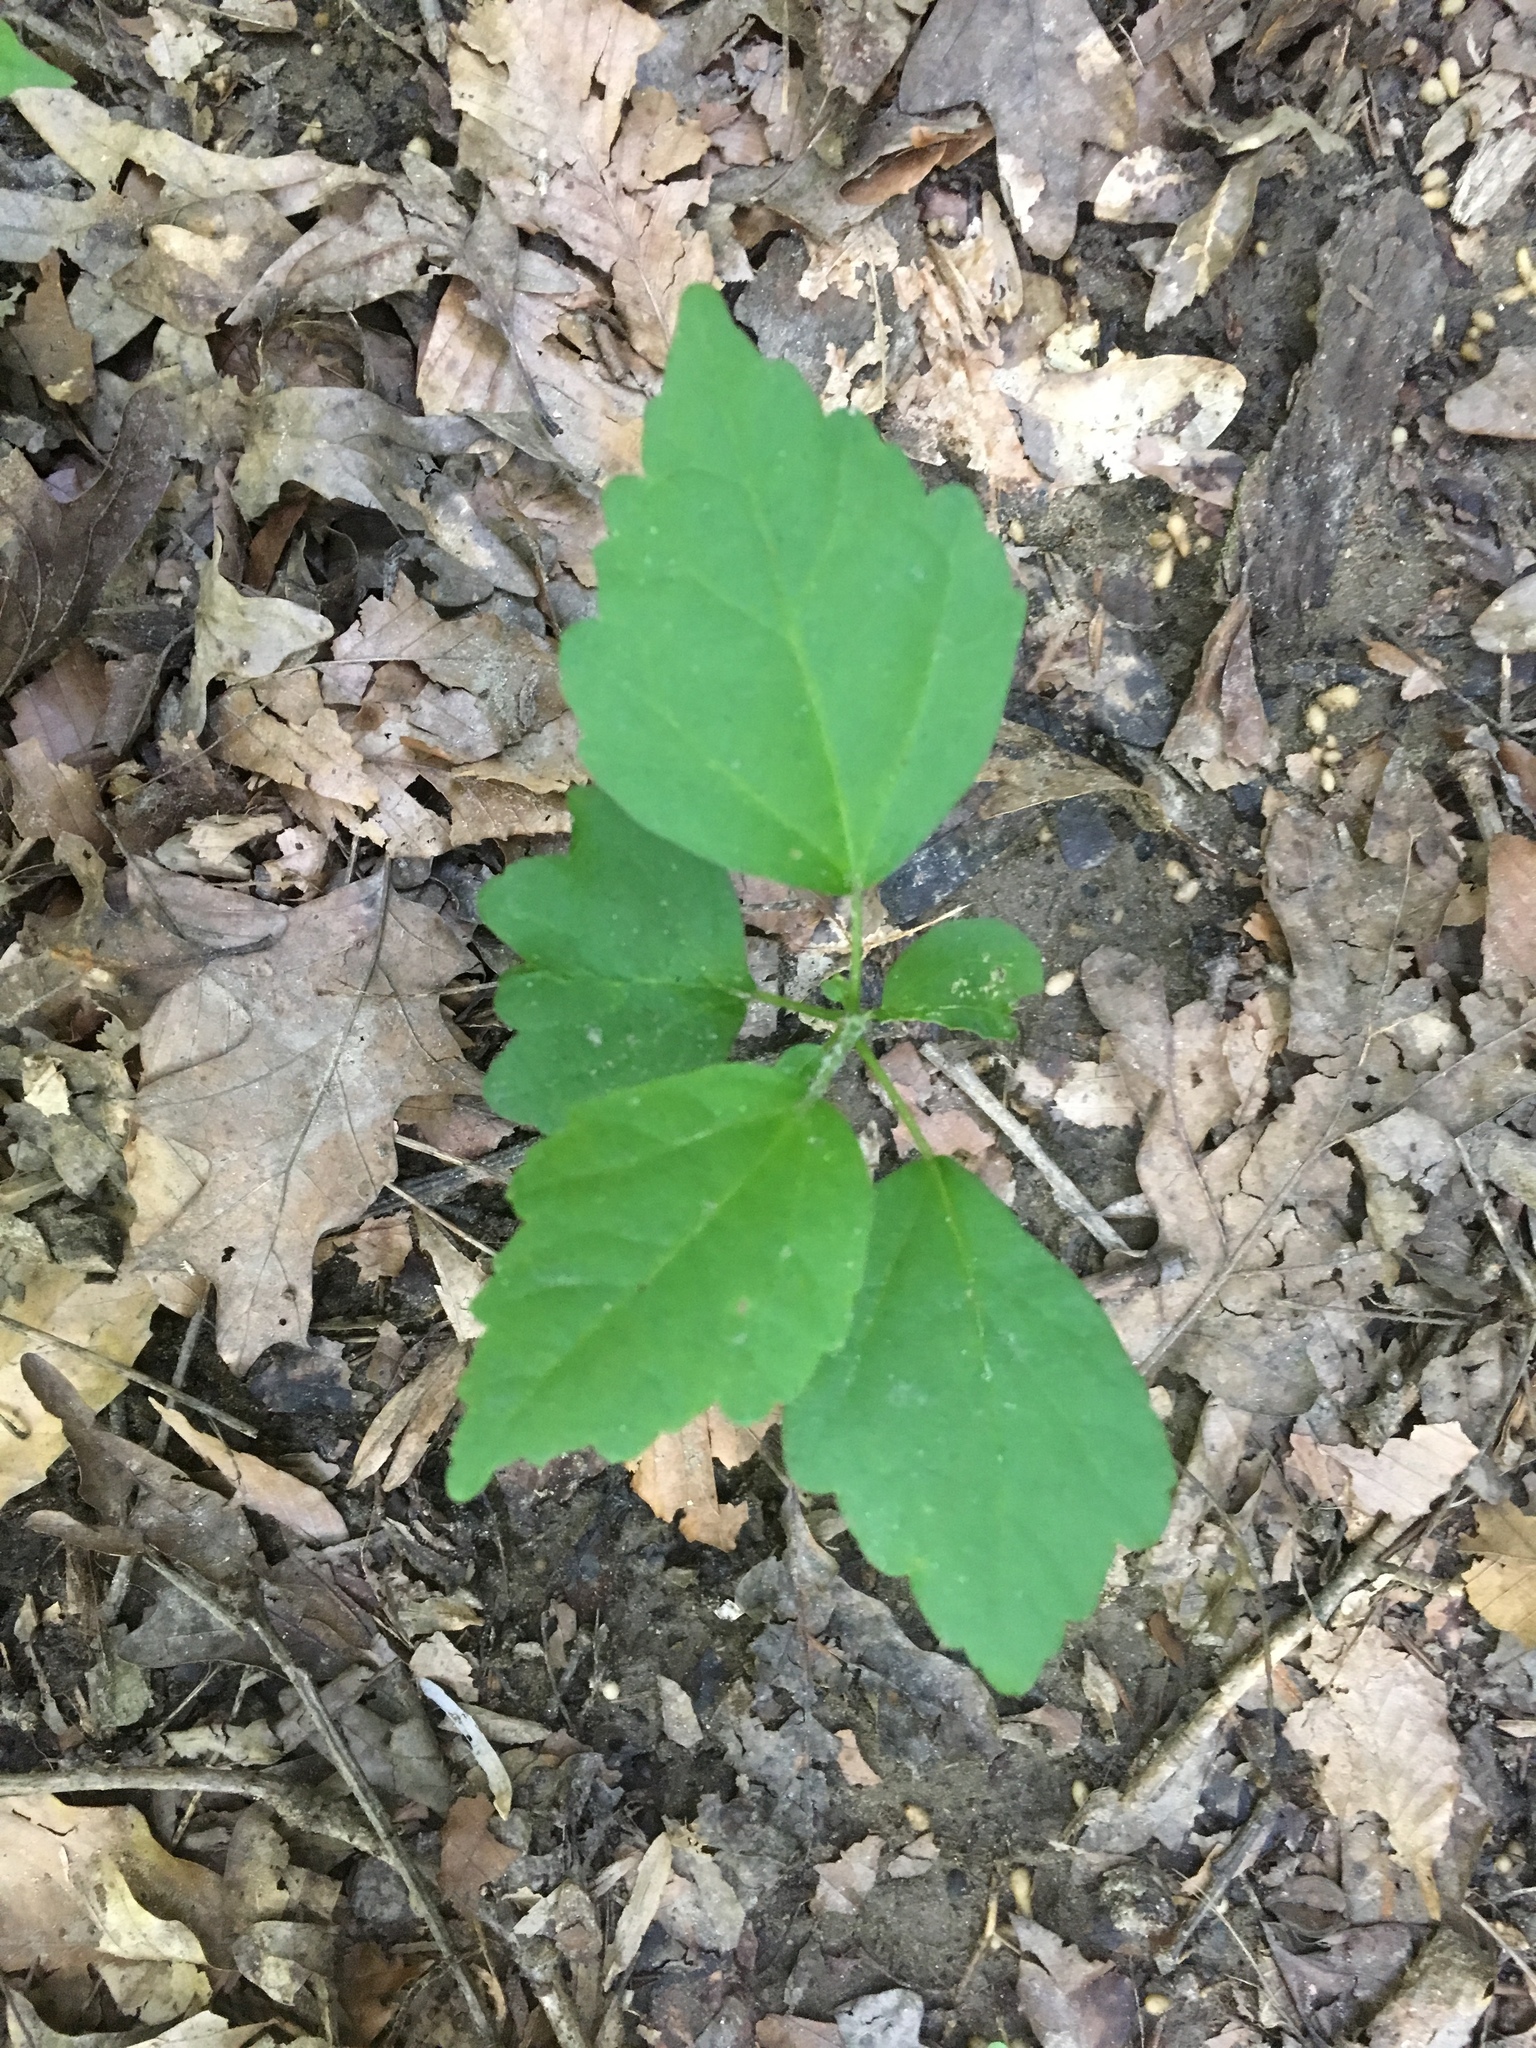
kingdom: Plantae
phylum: Tracheophyta
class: Magnoliopsida
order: Malvales
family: Malvaceae
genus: Hibiscus
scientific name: Hibiscus syriacus
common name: Syrian ketmia
